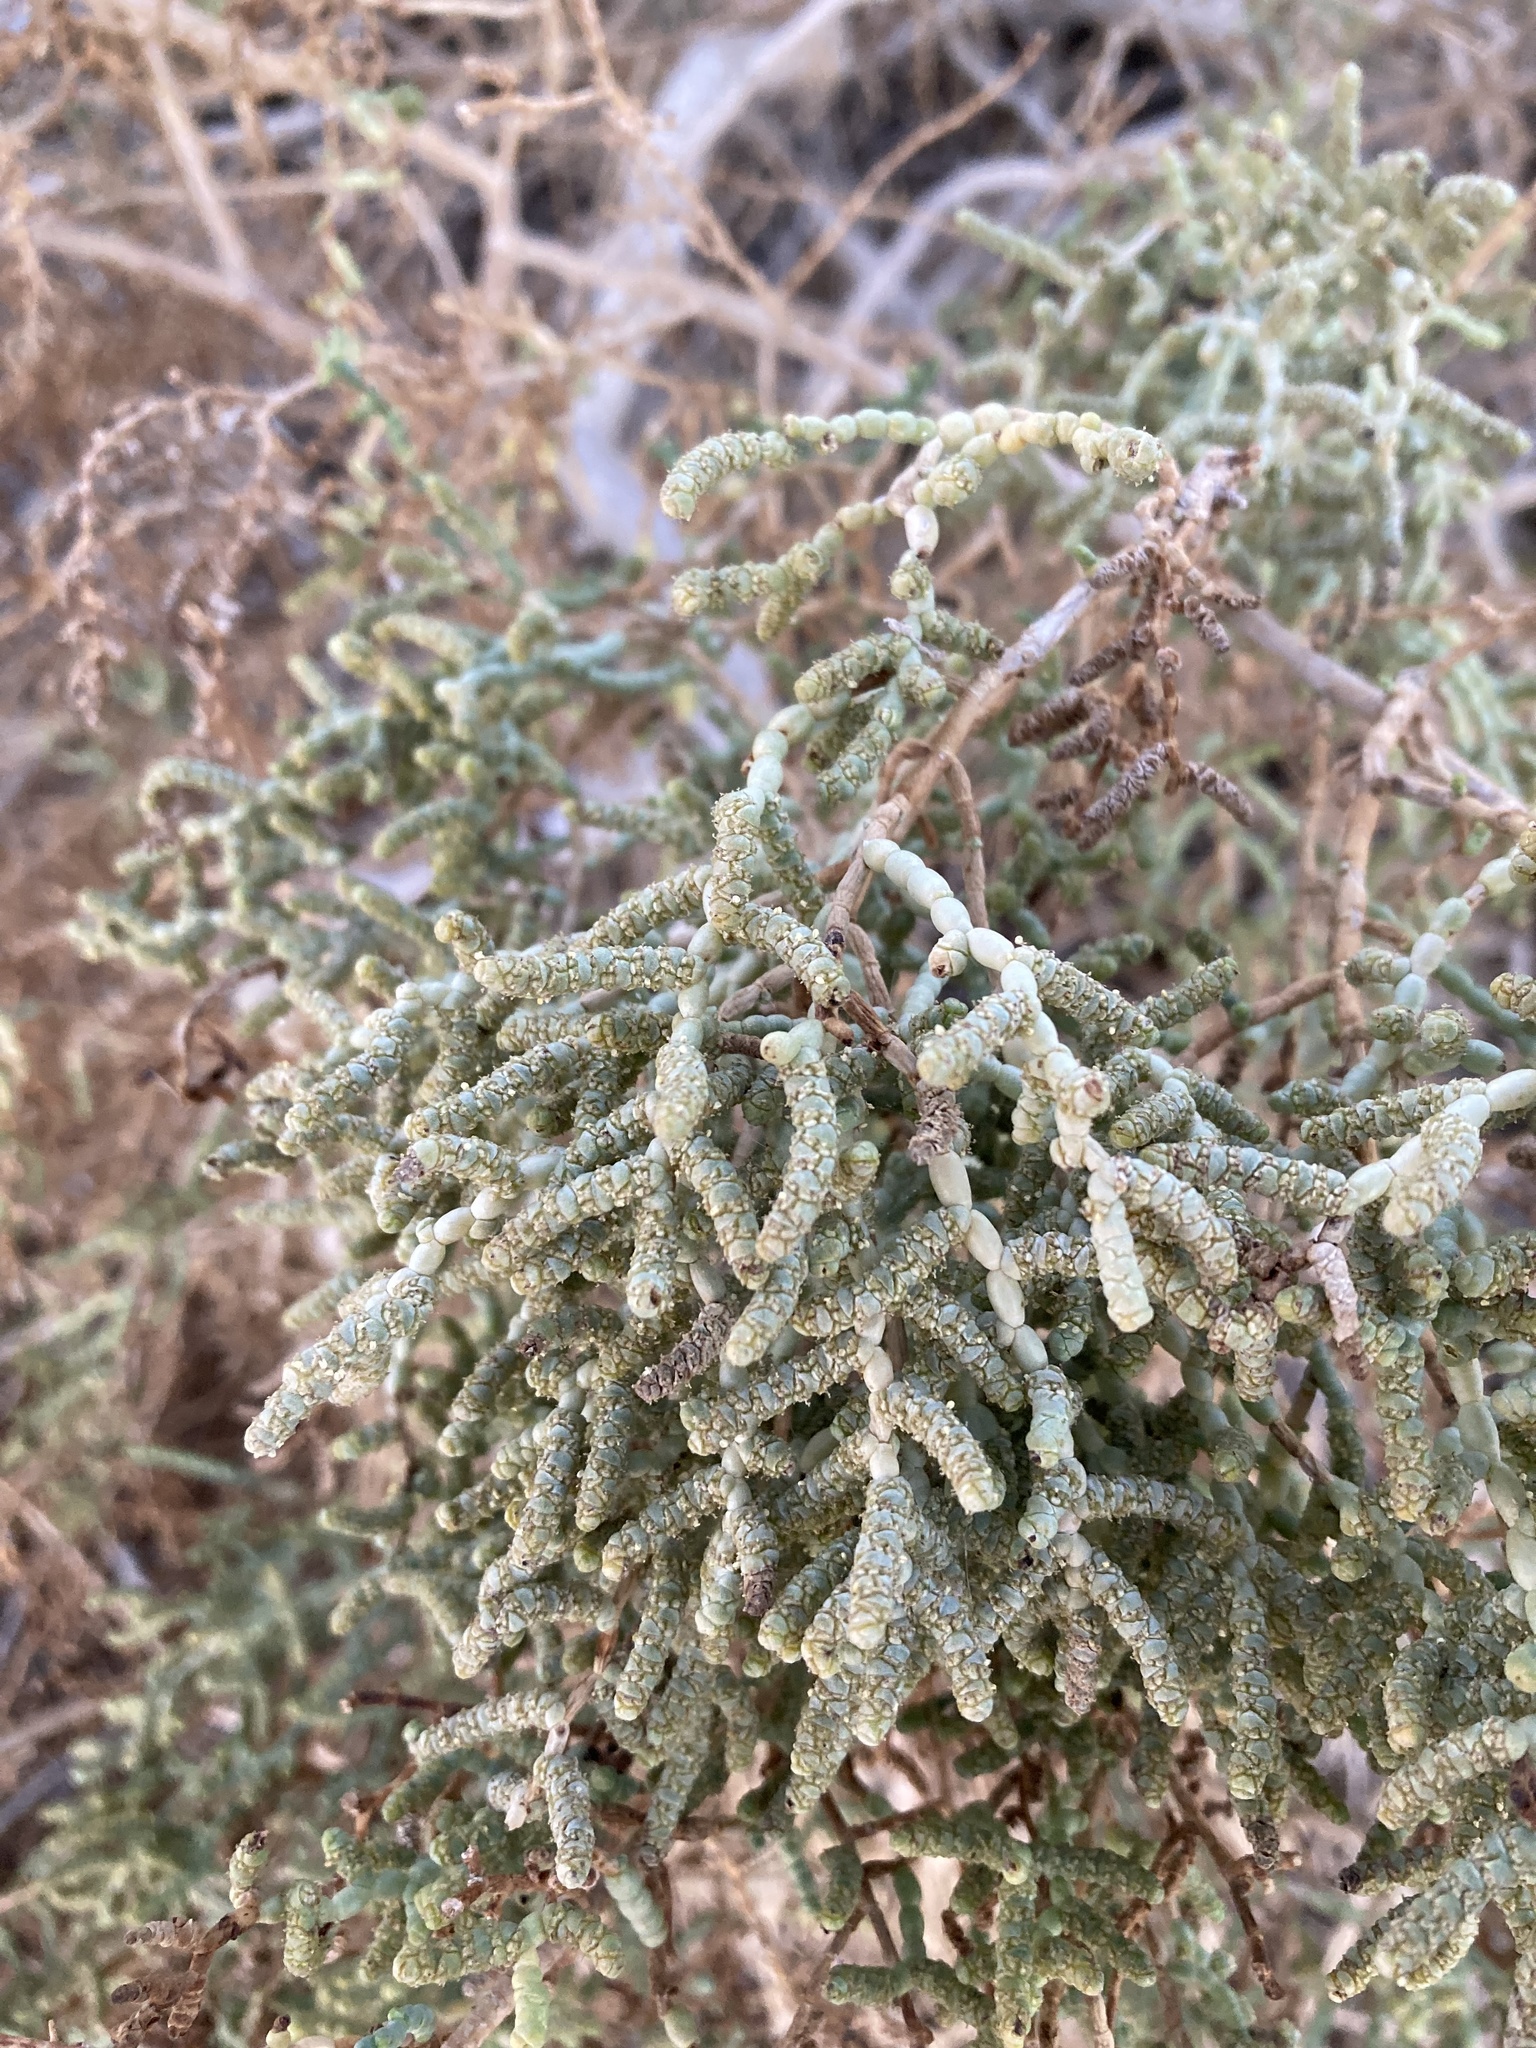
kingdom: Plantae
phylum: Tracheophyta
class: Magnoliopsida
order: Caryophyllales
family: Amaranthaceae
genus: Allenrolfea
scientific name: Allenrolfea occidentalis
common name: Iodine-bush
